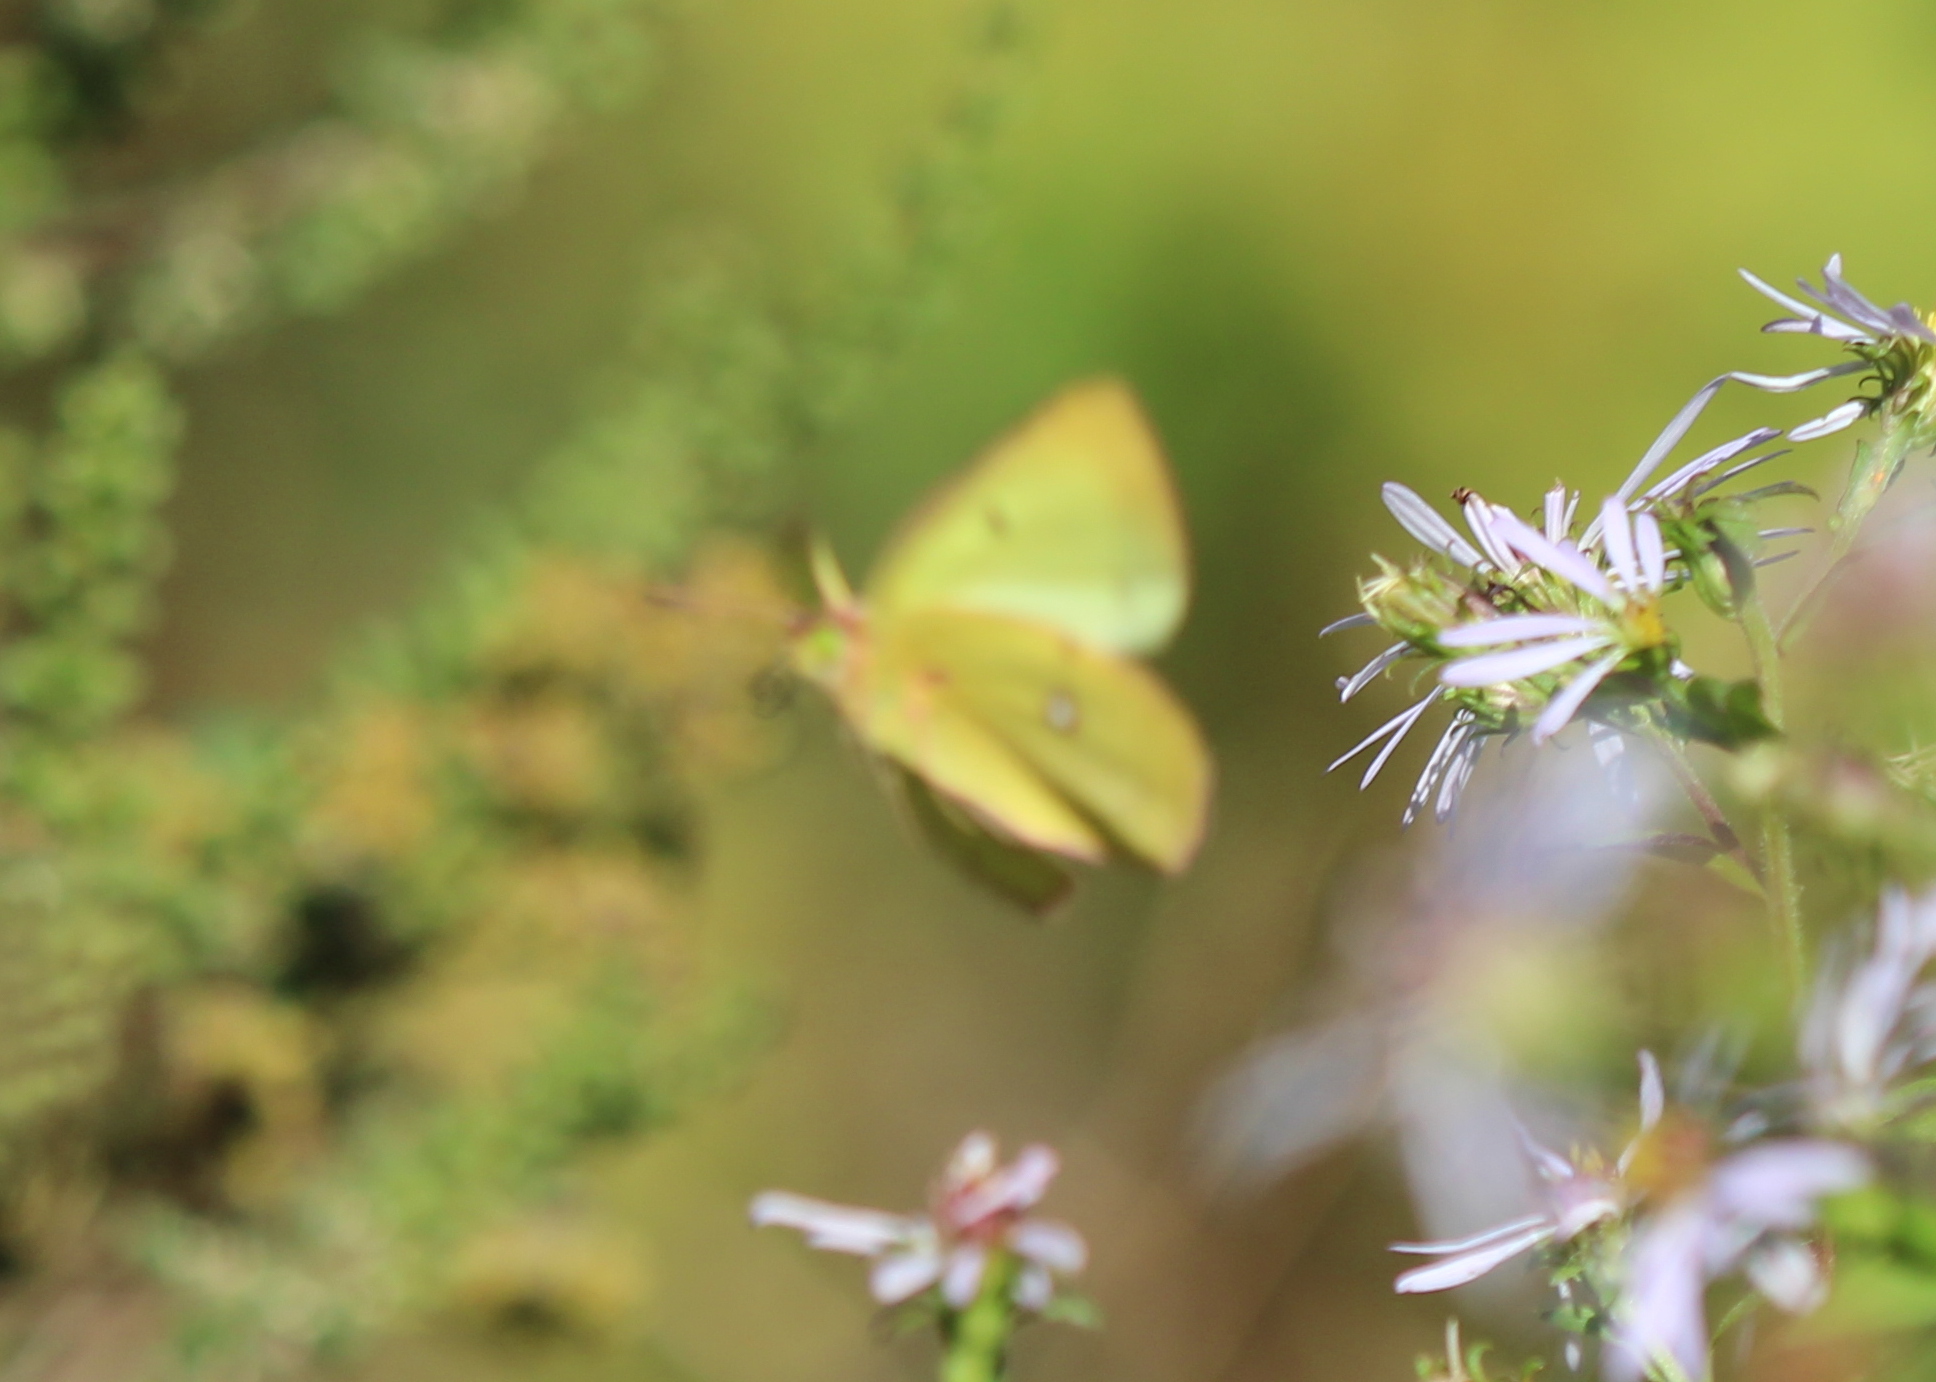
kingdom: Animalia
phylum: Arthropoda
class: Insecta
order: Lepidoptera
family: Pieridae
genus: Colias
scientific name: Colias philodice
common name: Clouded sulphur
